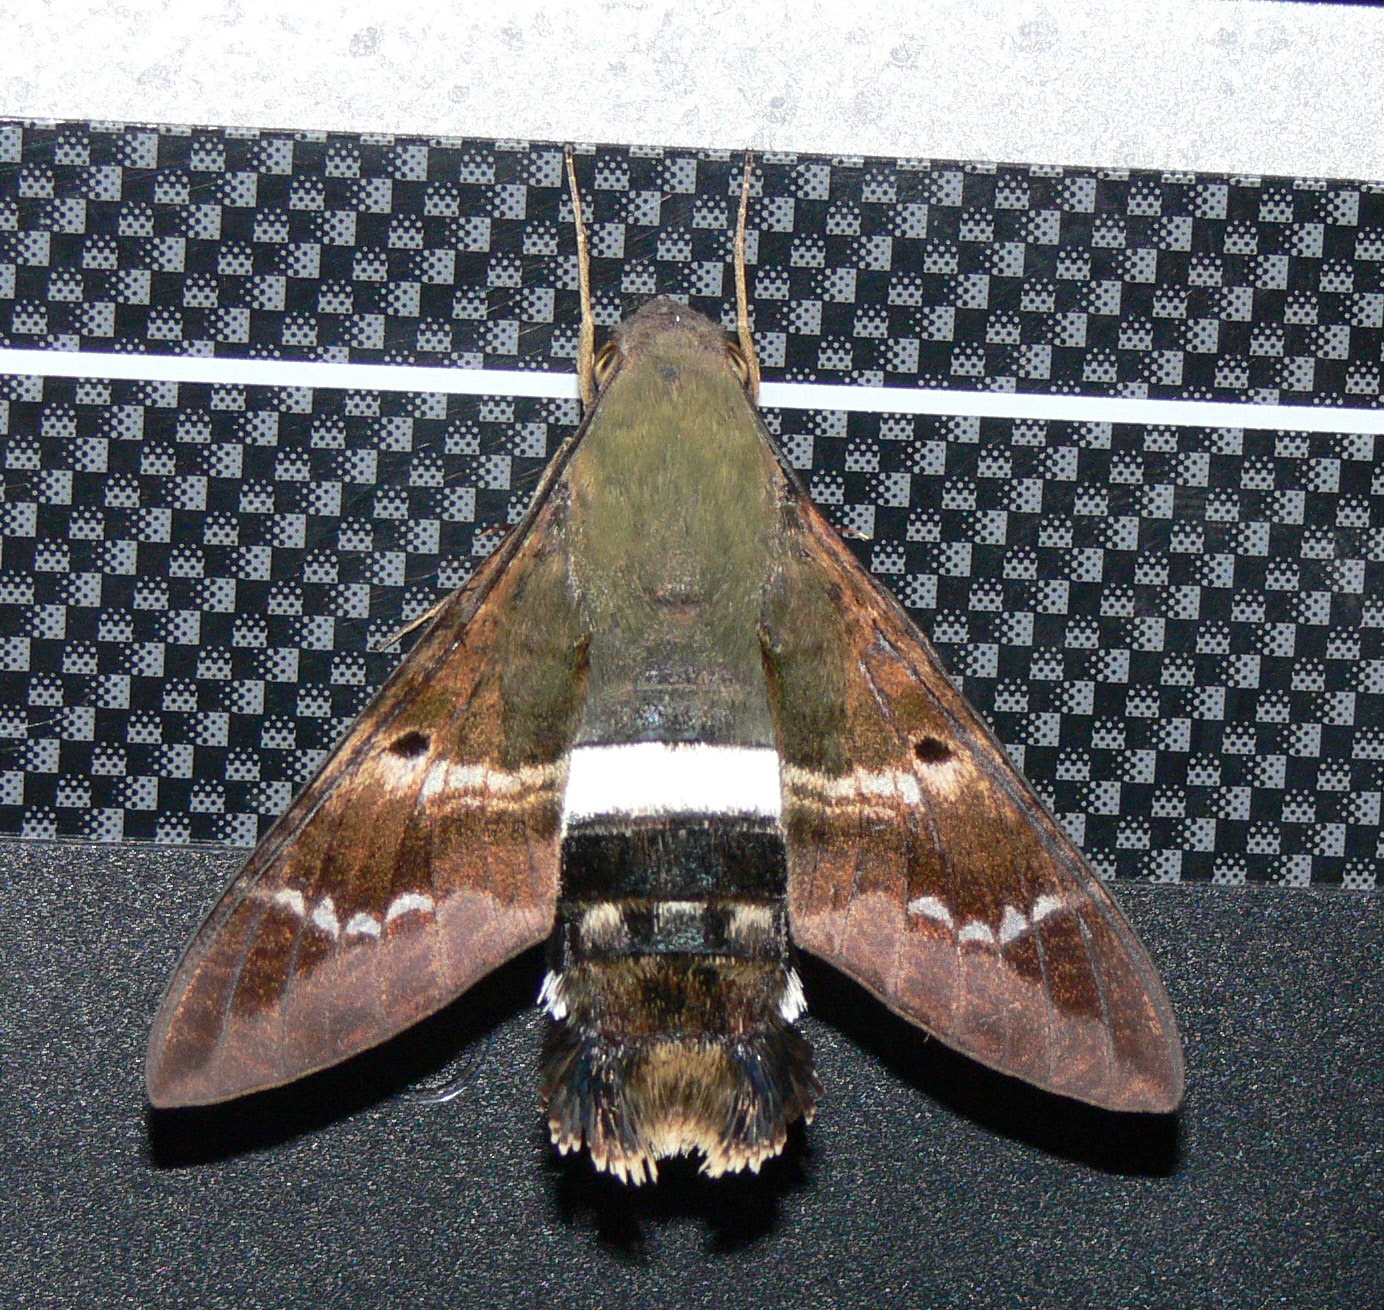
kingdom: Animalia
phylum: Arthropoda
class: Insecta
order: Lepidoptera
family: Sphingidae
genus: Aellopos
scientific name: Aellopos titan
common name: Titan sphinx
